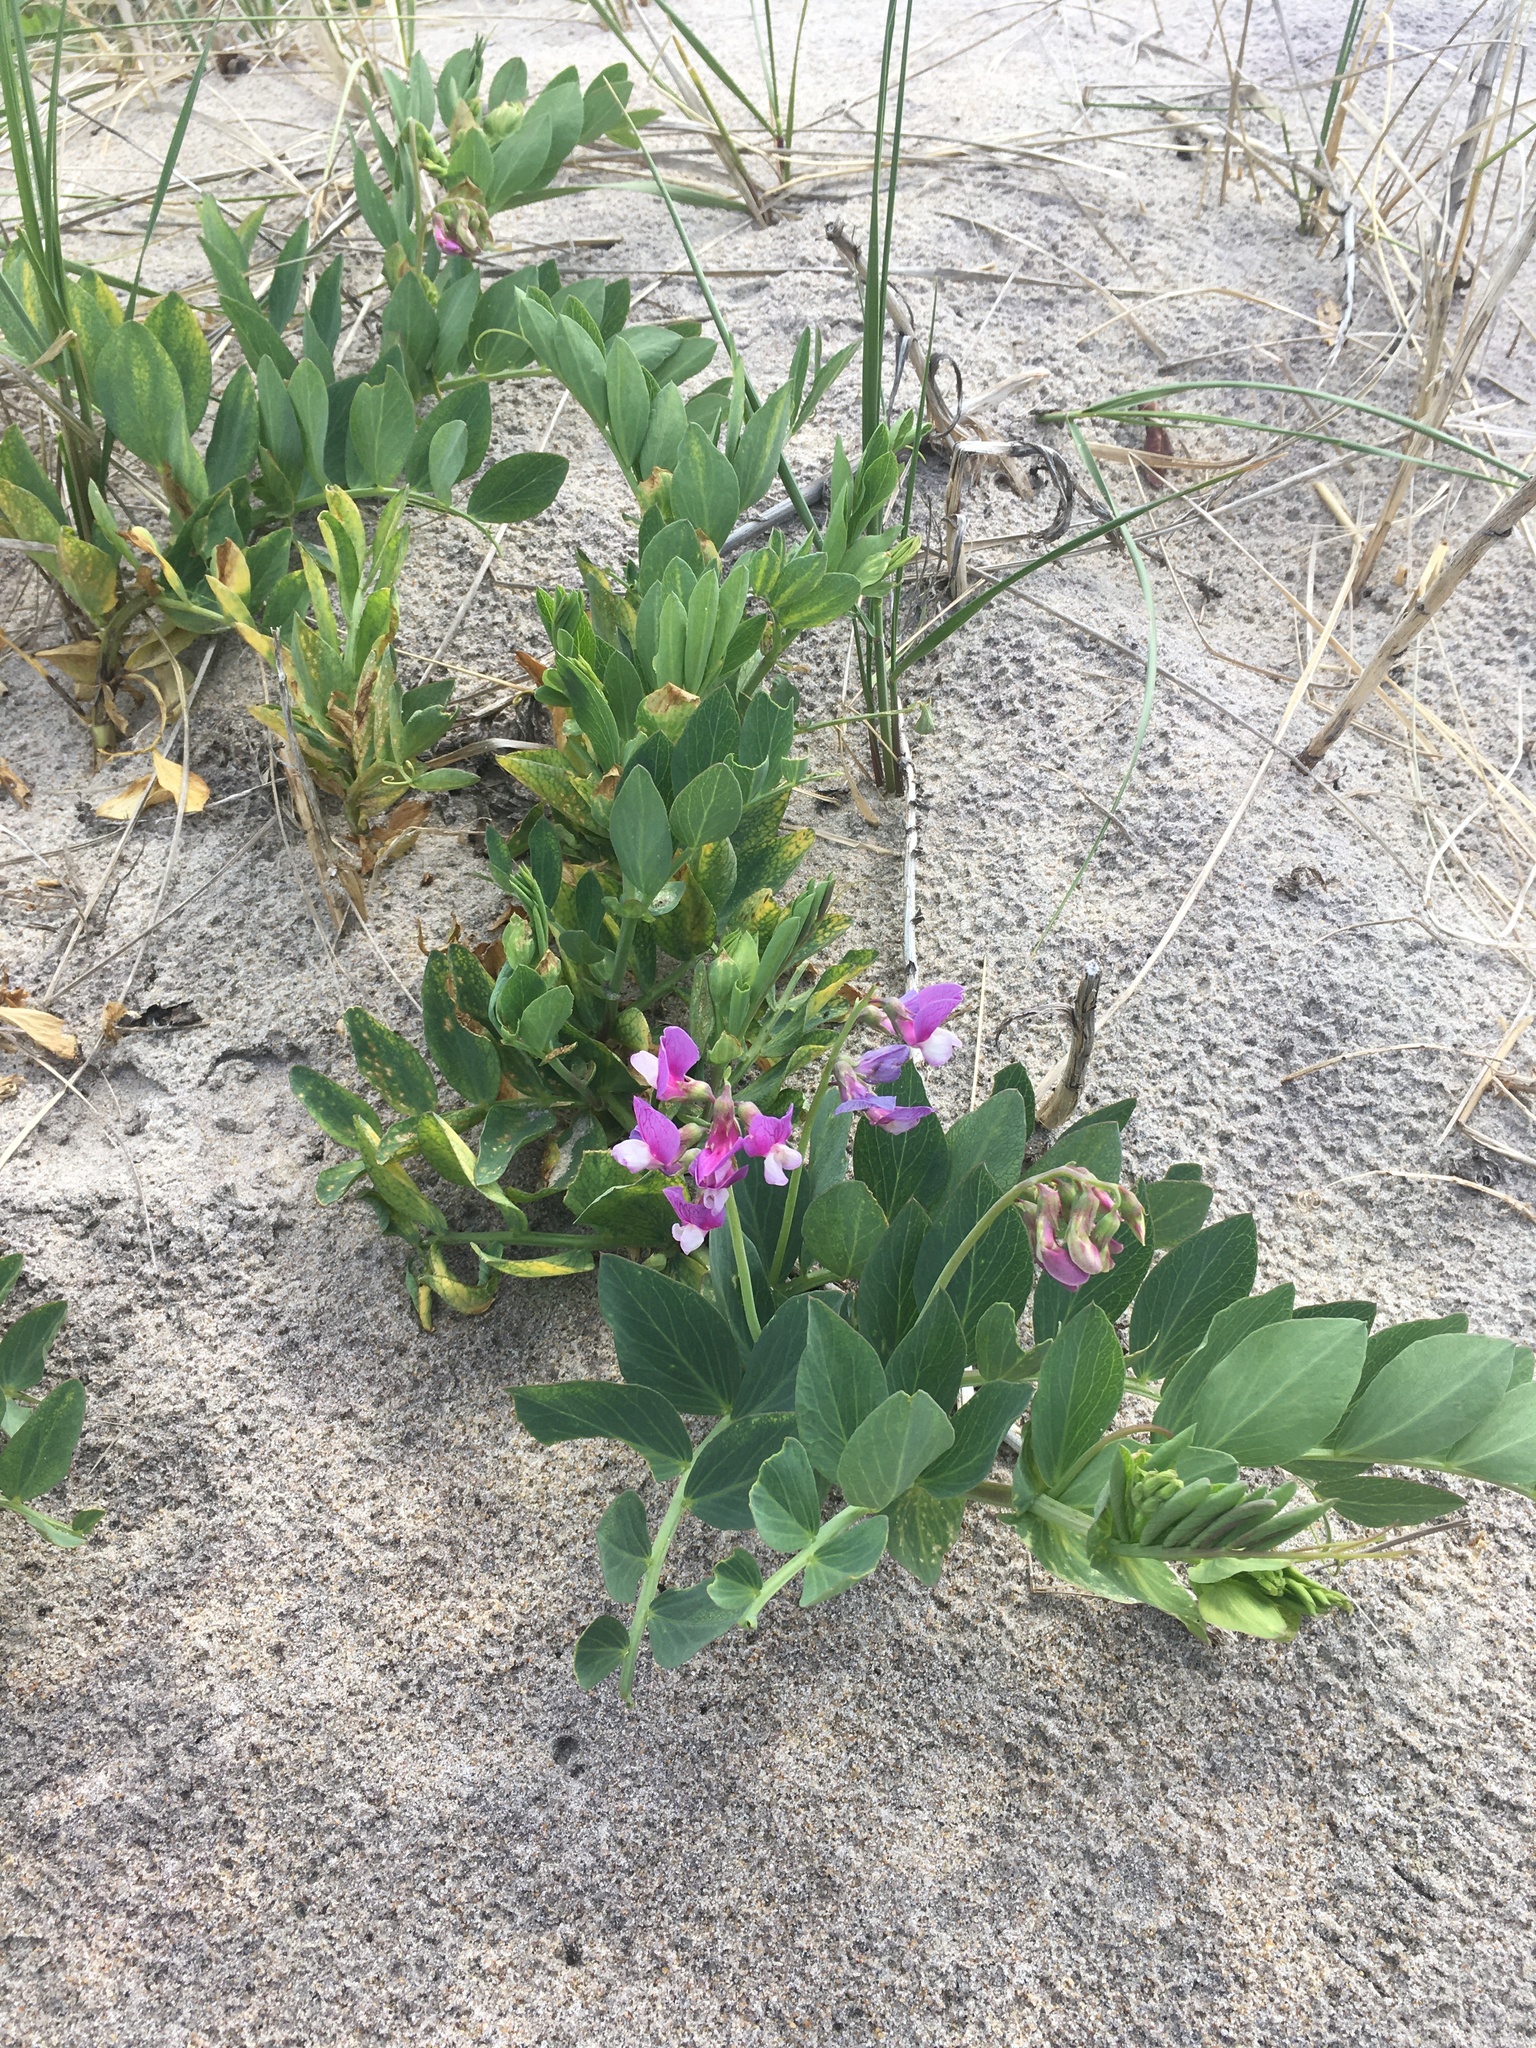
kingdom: Plantae
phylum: Tracheophyta
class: Magnoliopsida
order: Fabales
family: Fabaceae
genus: Lathyrus
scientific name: Lathyrus japonicus
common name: Sea pea
